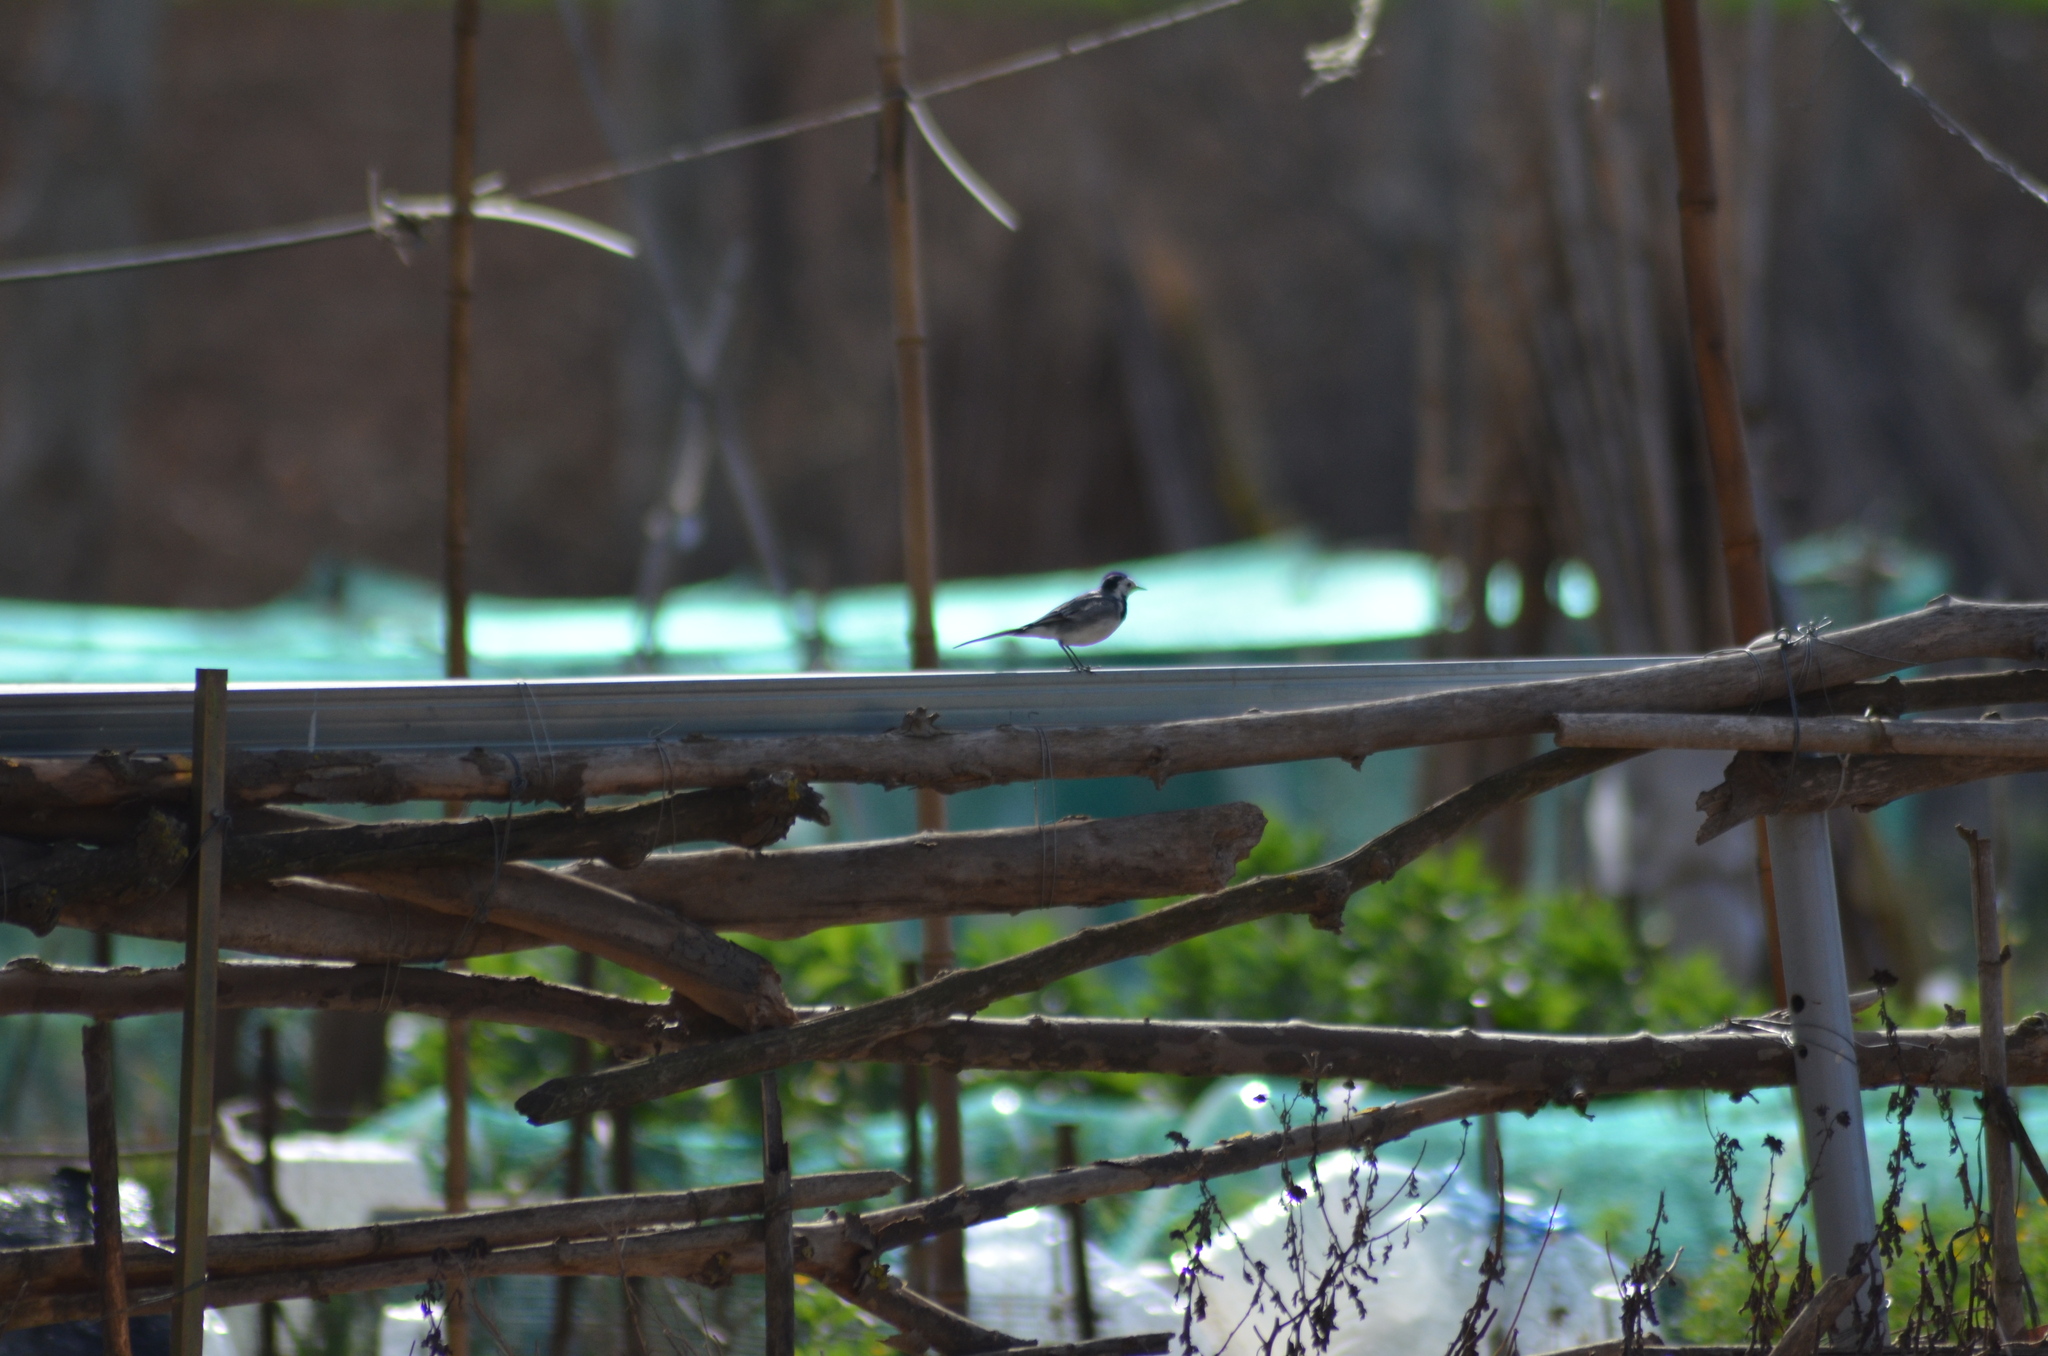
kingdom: Animalia
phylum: Chordata
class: Aves
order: Passeriformes
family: Motacillidae
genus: Motacilla
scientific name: Motacilla alba
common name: White wagtail
